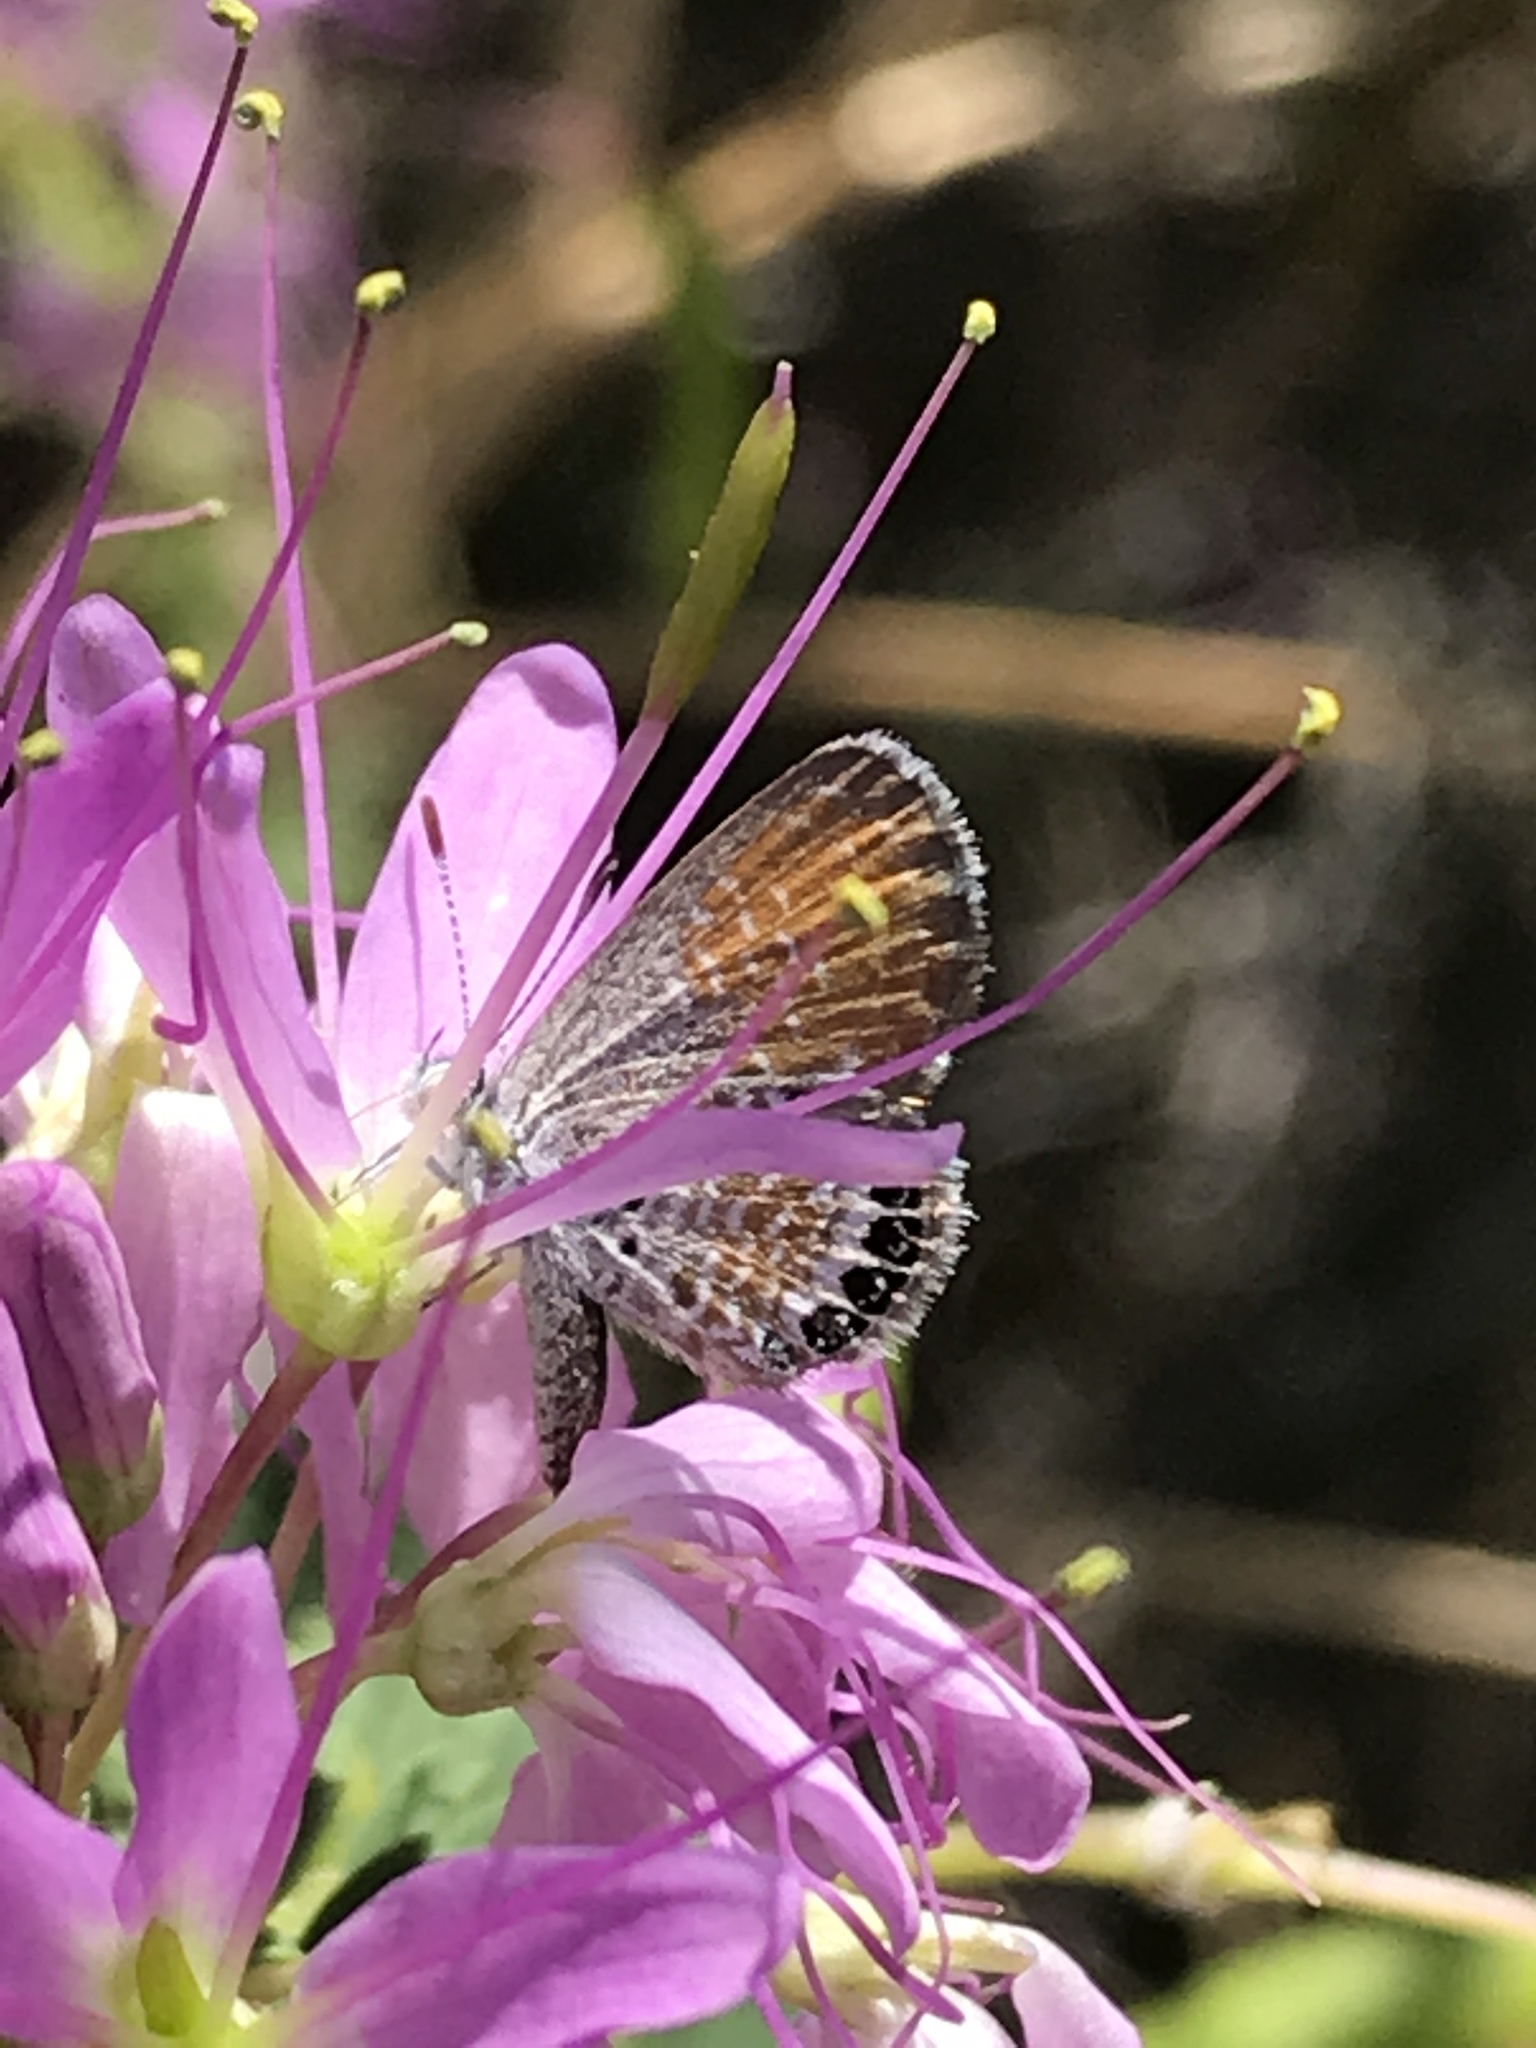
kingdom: Animalia
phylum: Arthropoda
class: Insecta
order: Lepidoptera
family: Lycaenidae
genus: Brephidium
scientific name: Brephidium exilis
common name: Pygmy blue
